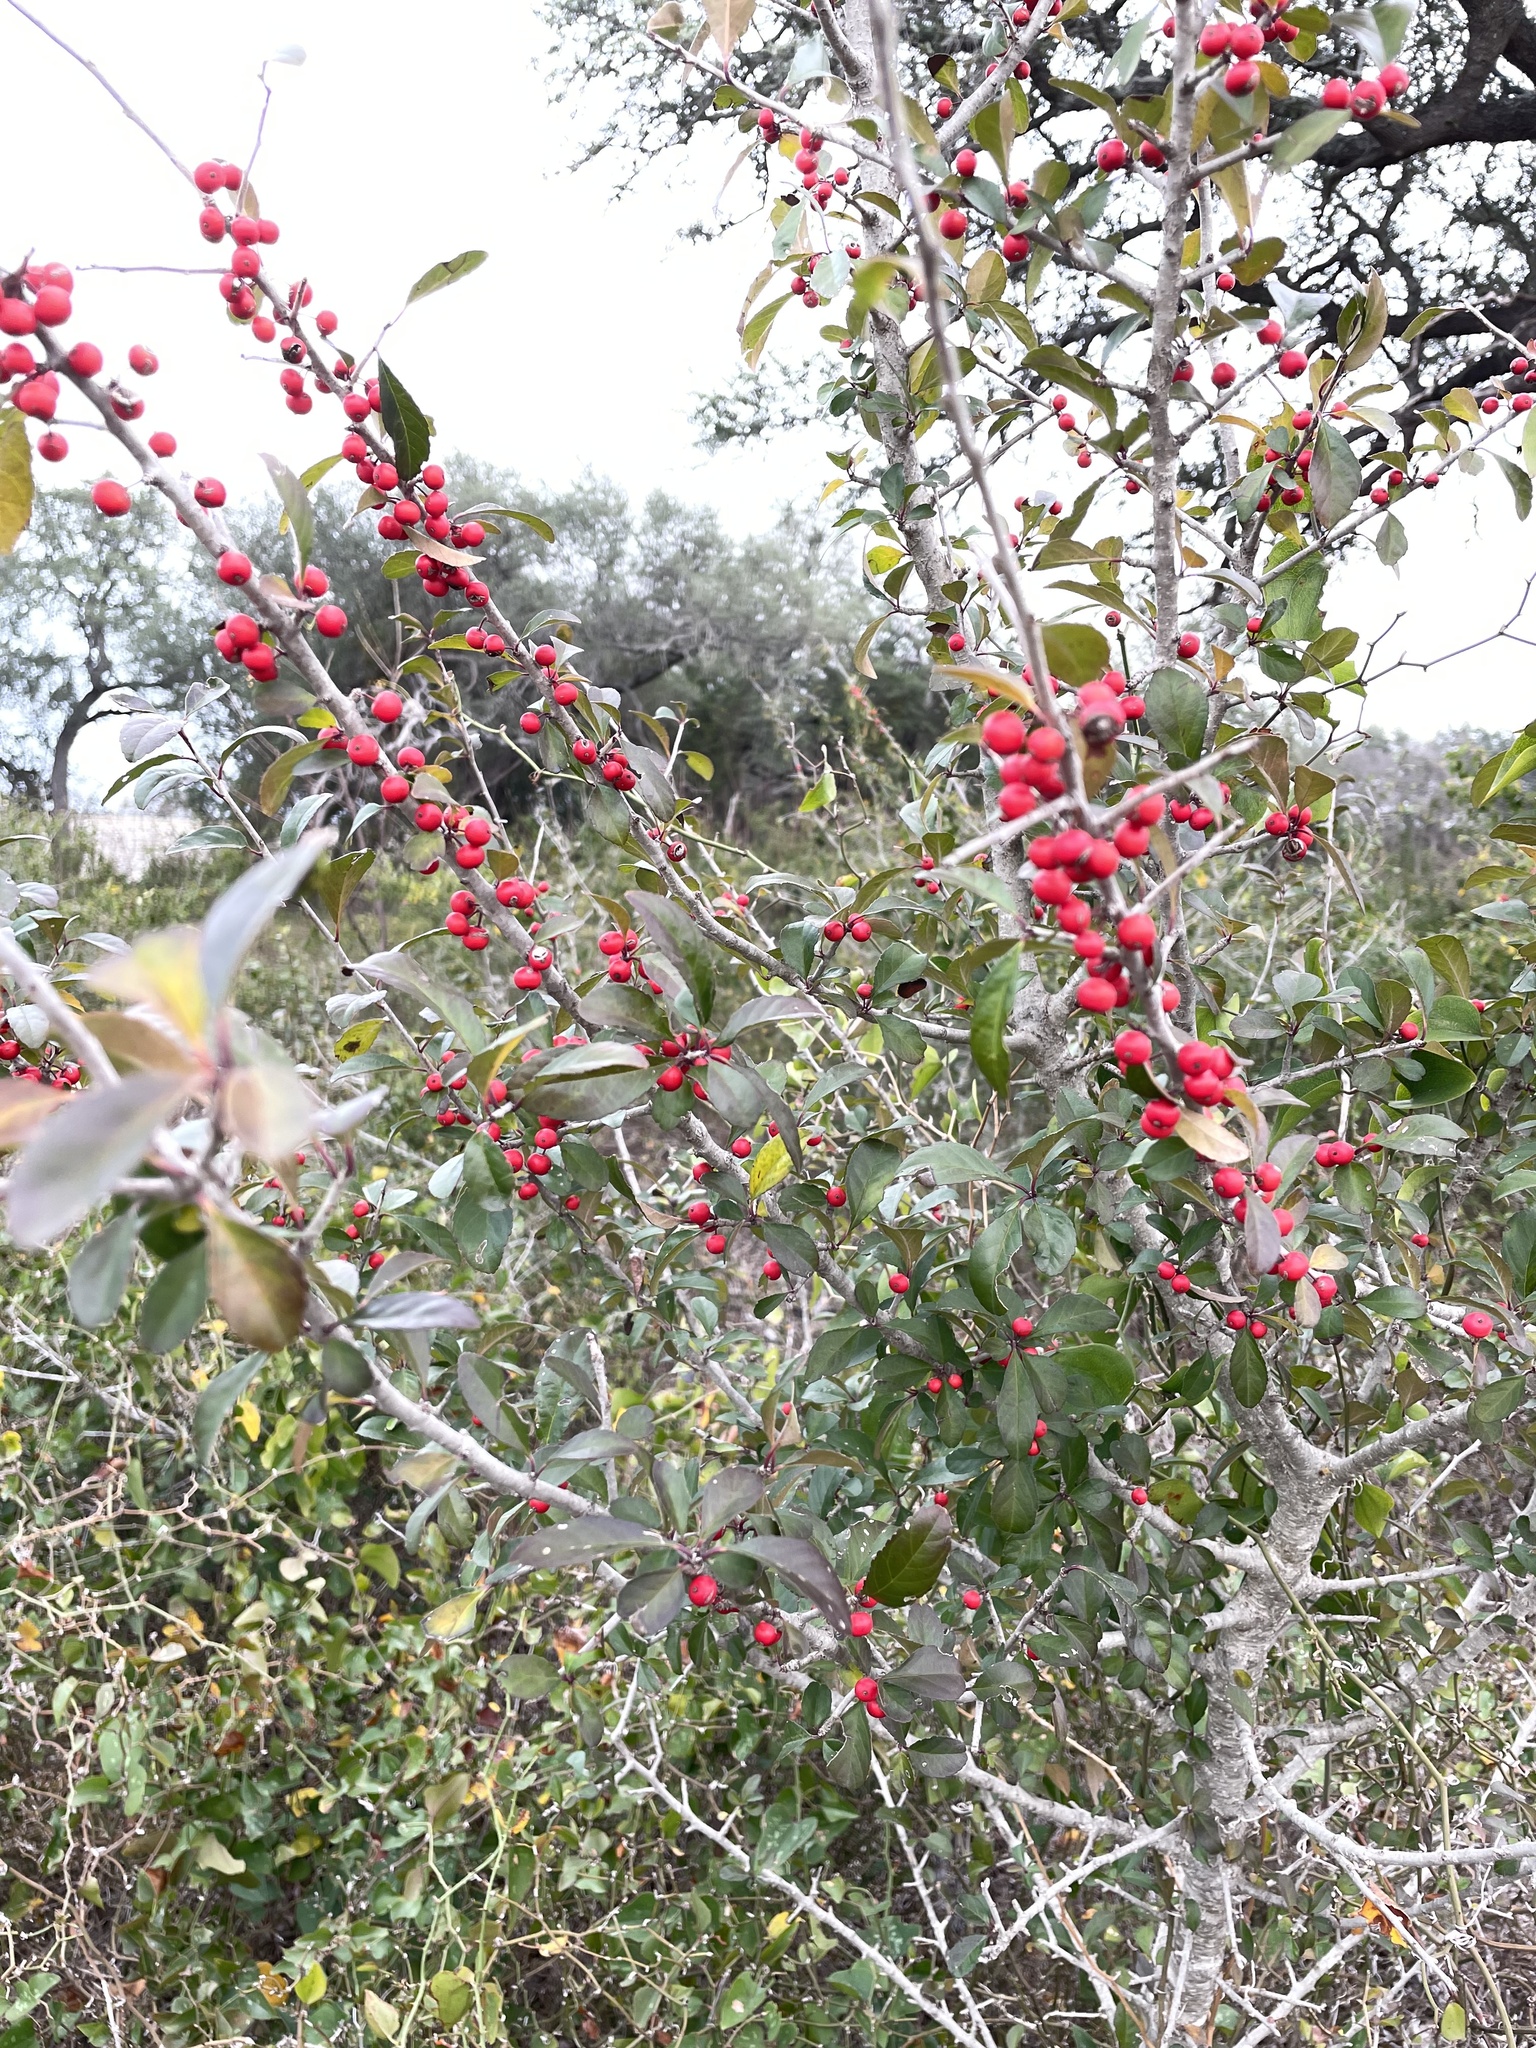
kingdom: Plantae
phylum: Tracheophyta
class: Magnoliopsida
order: Aquifoliales
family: Aquifoliaceae
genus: Ilex
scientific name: Ilex decidua
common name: Possum-haw
